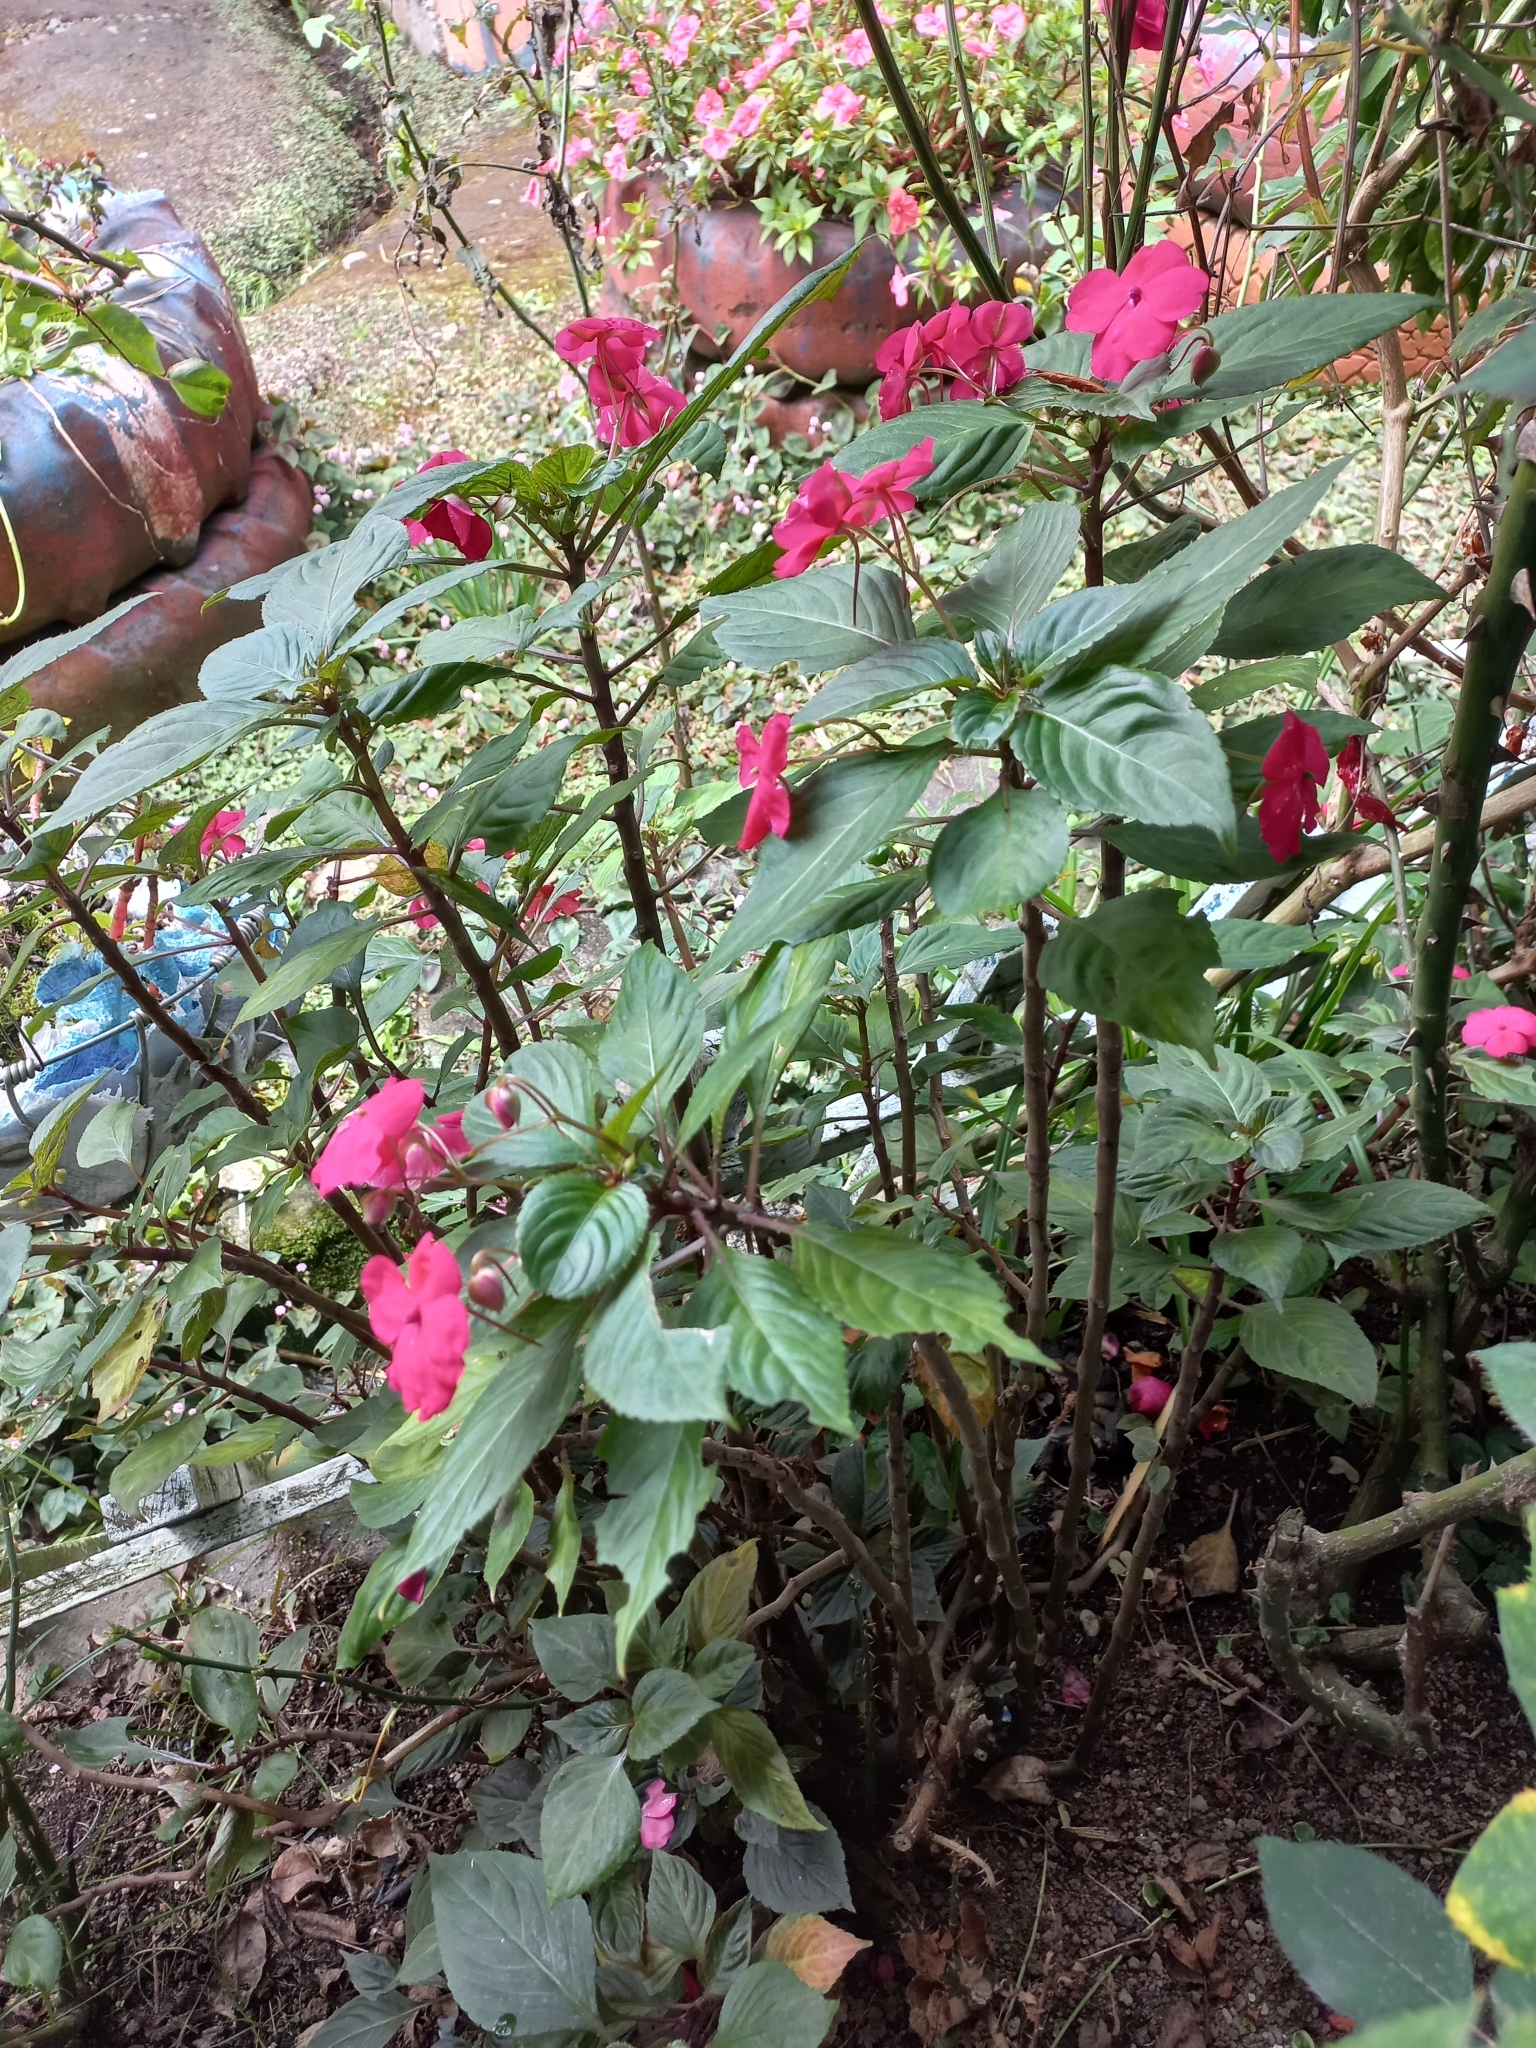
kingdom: Plantae
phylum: Tracheophyta
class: Magnoliopsida
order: Ericales
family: Balsaminaceae
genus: Impatiens
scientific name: Impatiens walleriana
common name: Buzzy lizzy
